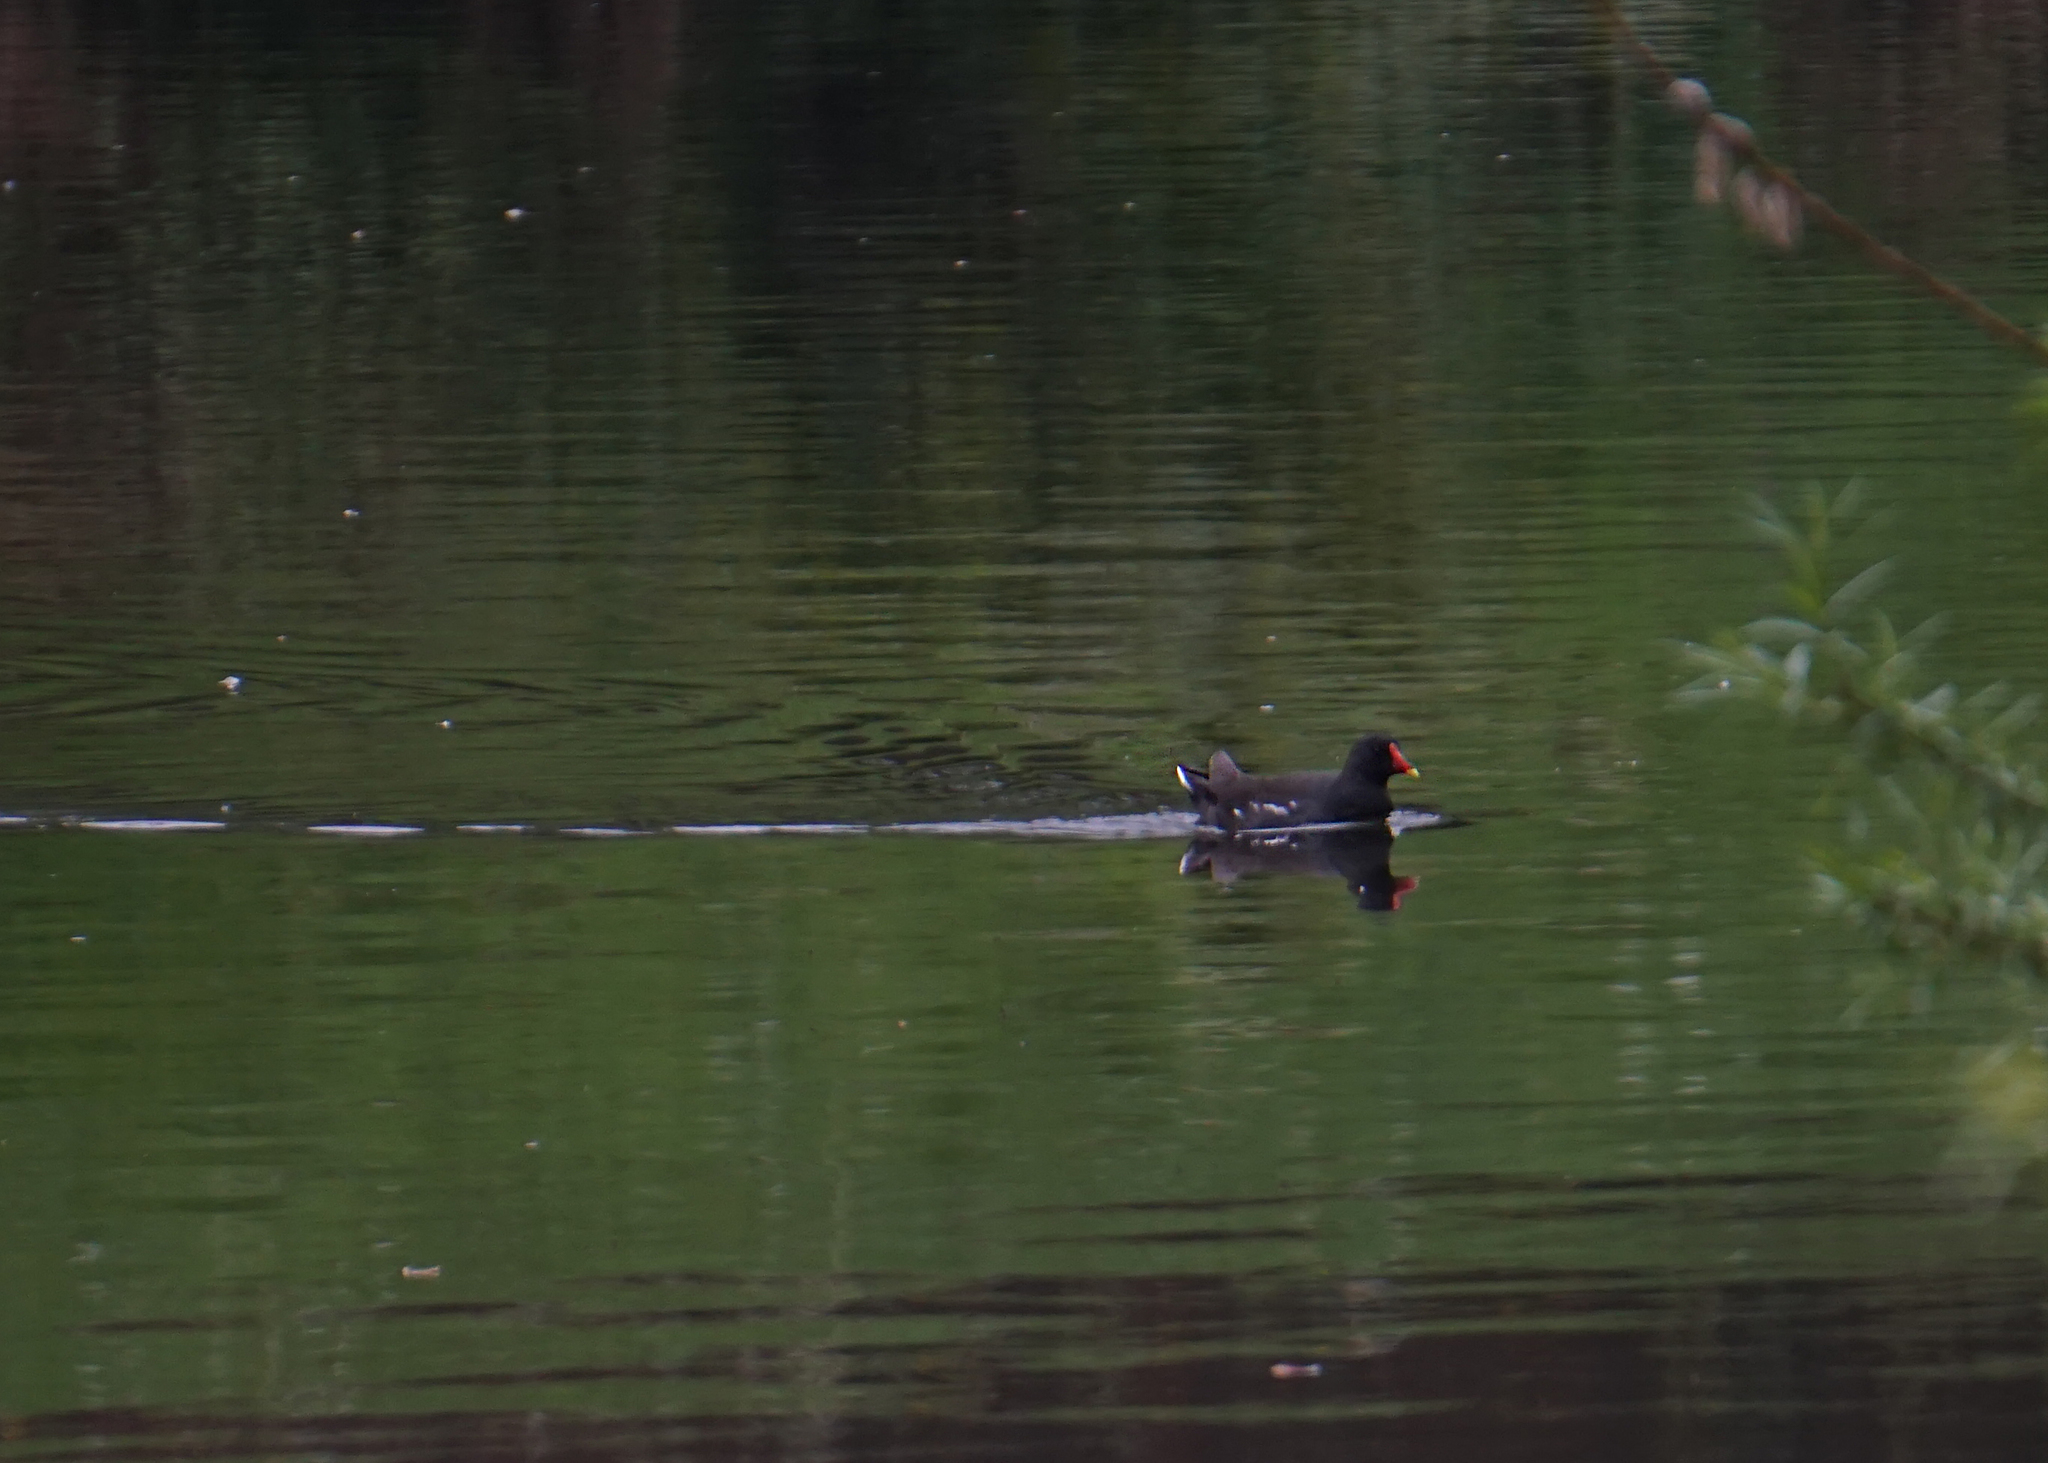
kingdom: Animalia
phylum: Chordata
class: Aves
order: Gruiformes
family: Rallidae
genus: Gallinula
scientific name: Gallinula chloropus
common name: Common moorhen
